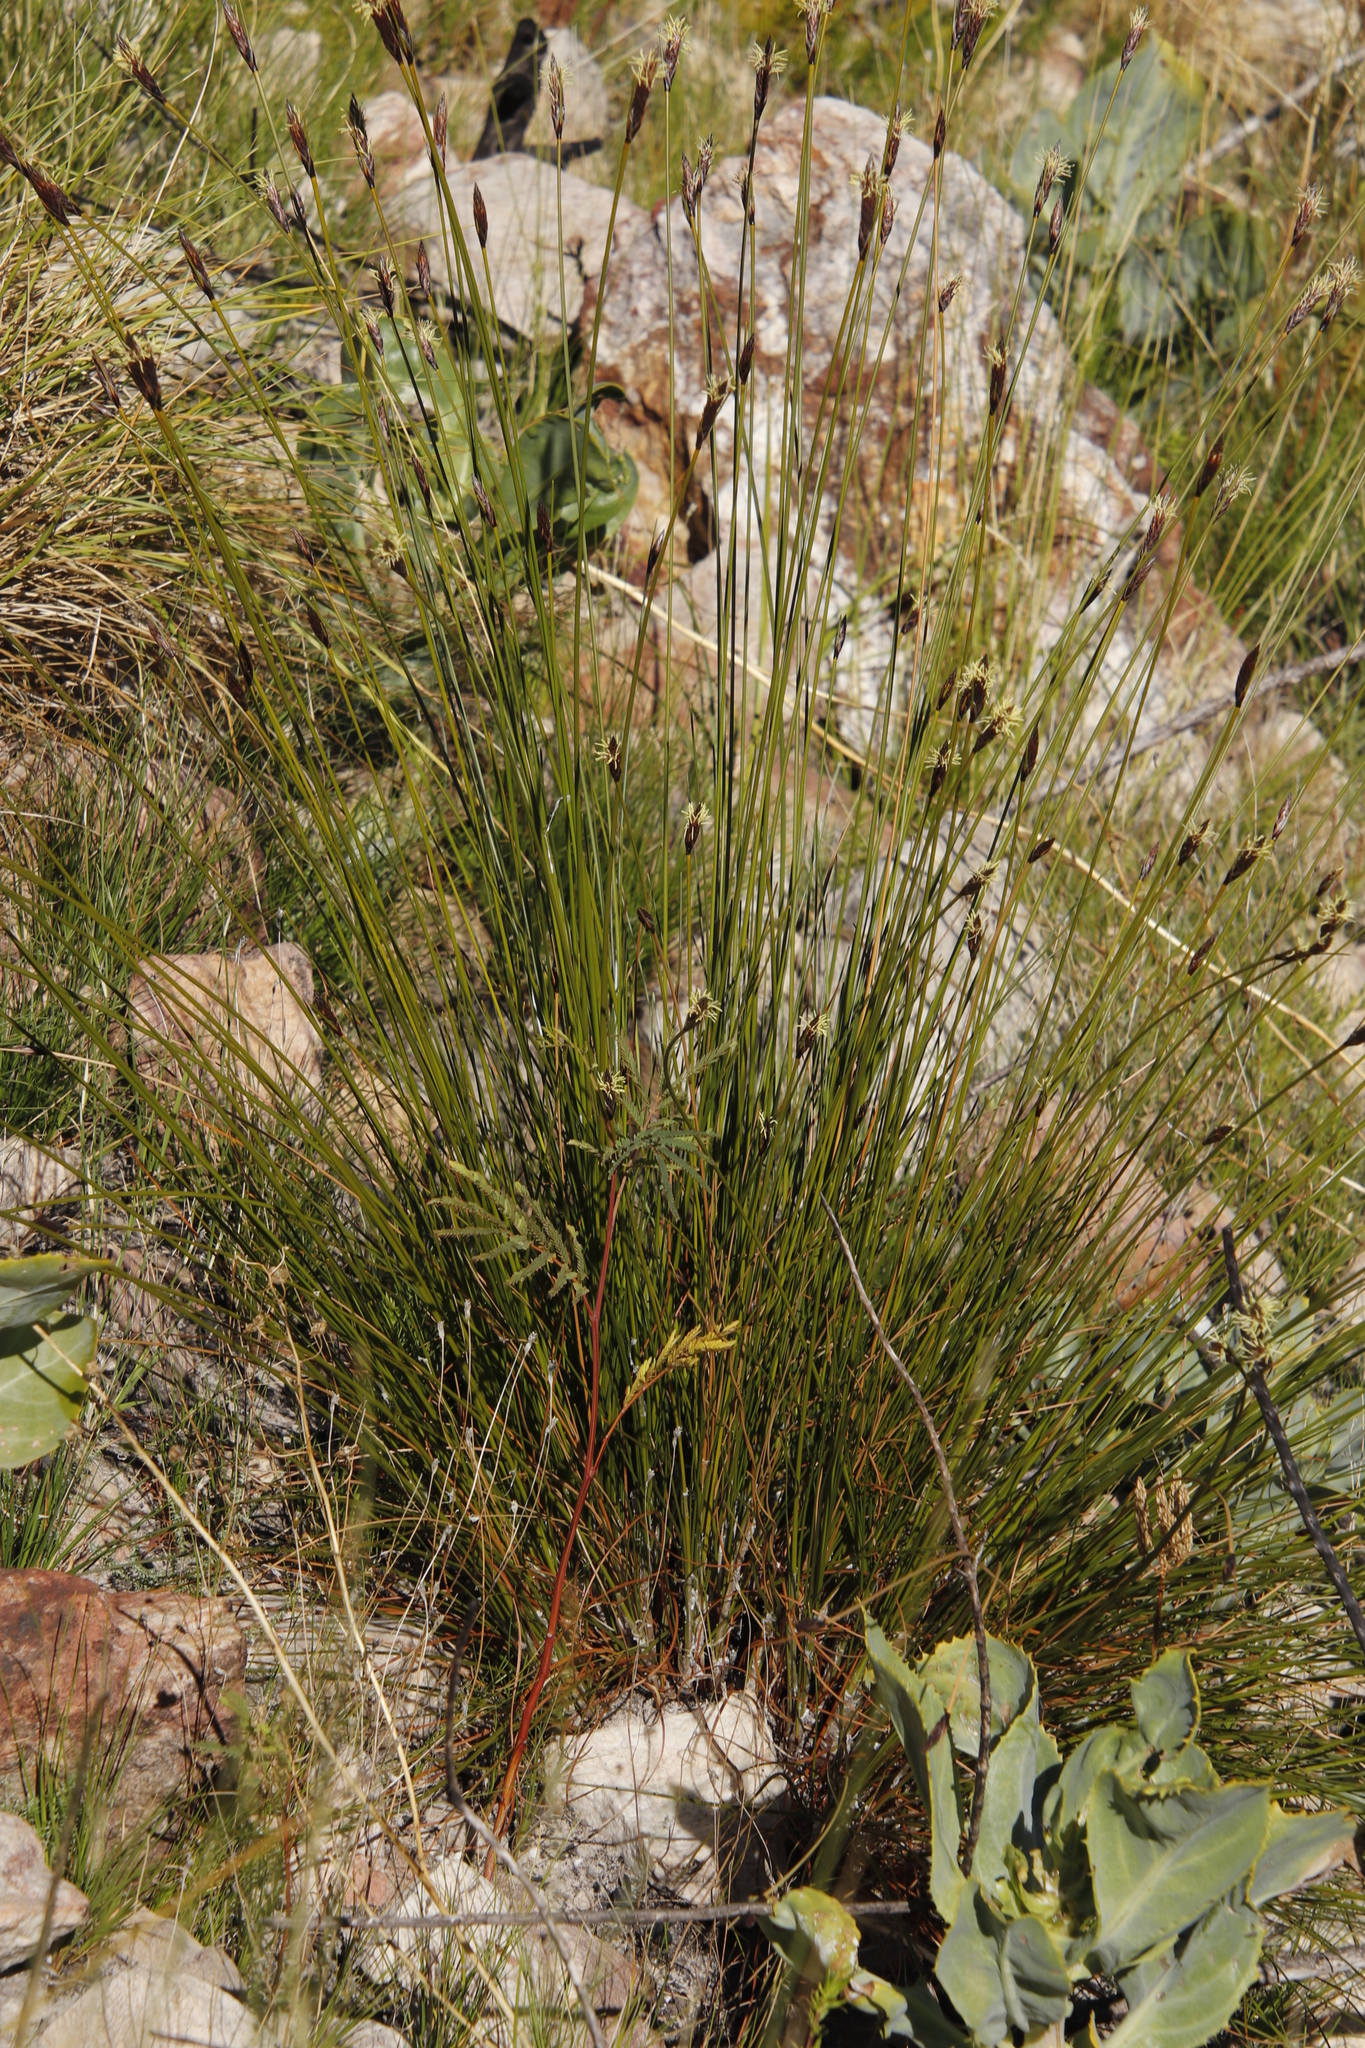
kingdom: Plantae
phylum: Tracheophyta
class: Liliopsida
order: Poales
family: Cyperaceae
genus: Ficinia
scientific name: Ficinia deusta
